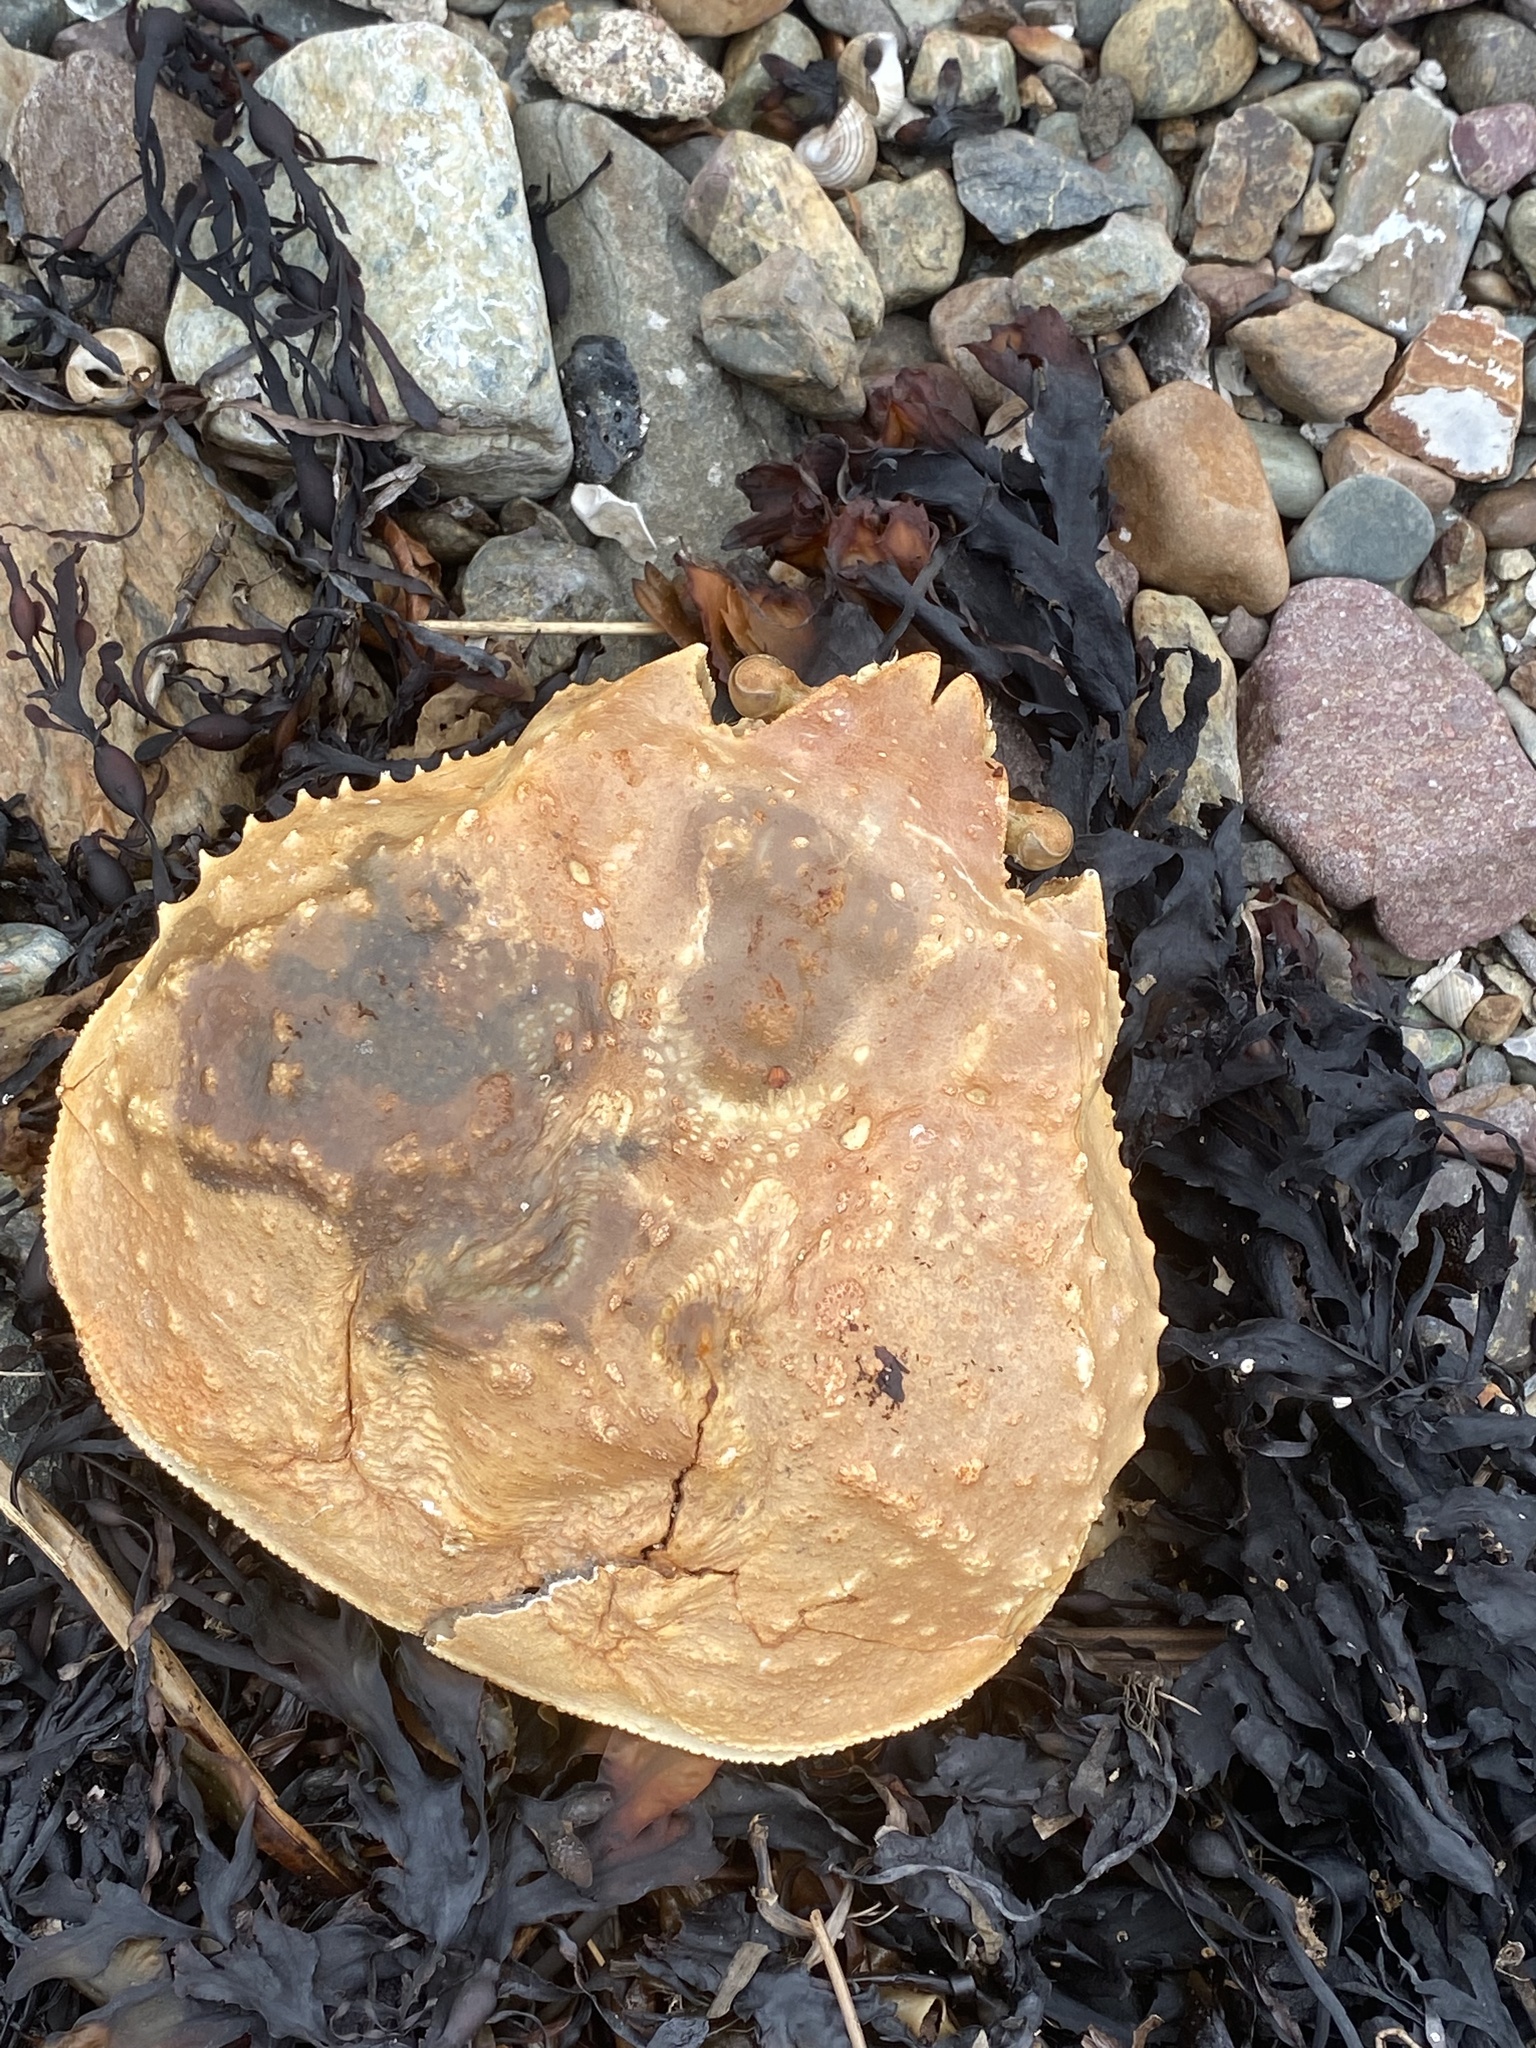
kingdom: Animalia
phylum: Arthropoda
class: Malacostraca
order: Decapoda
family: Oregoniidae
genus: Chionoecetes
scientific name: Chionoecetes opilio
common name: Atlantic snow crab
